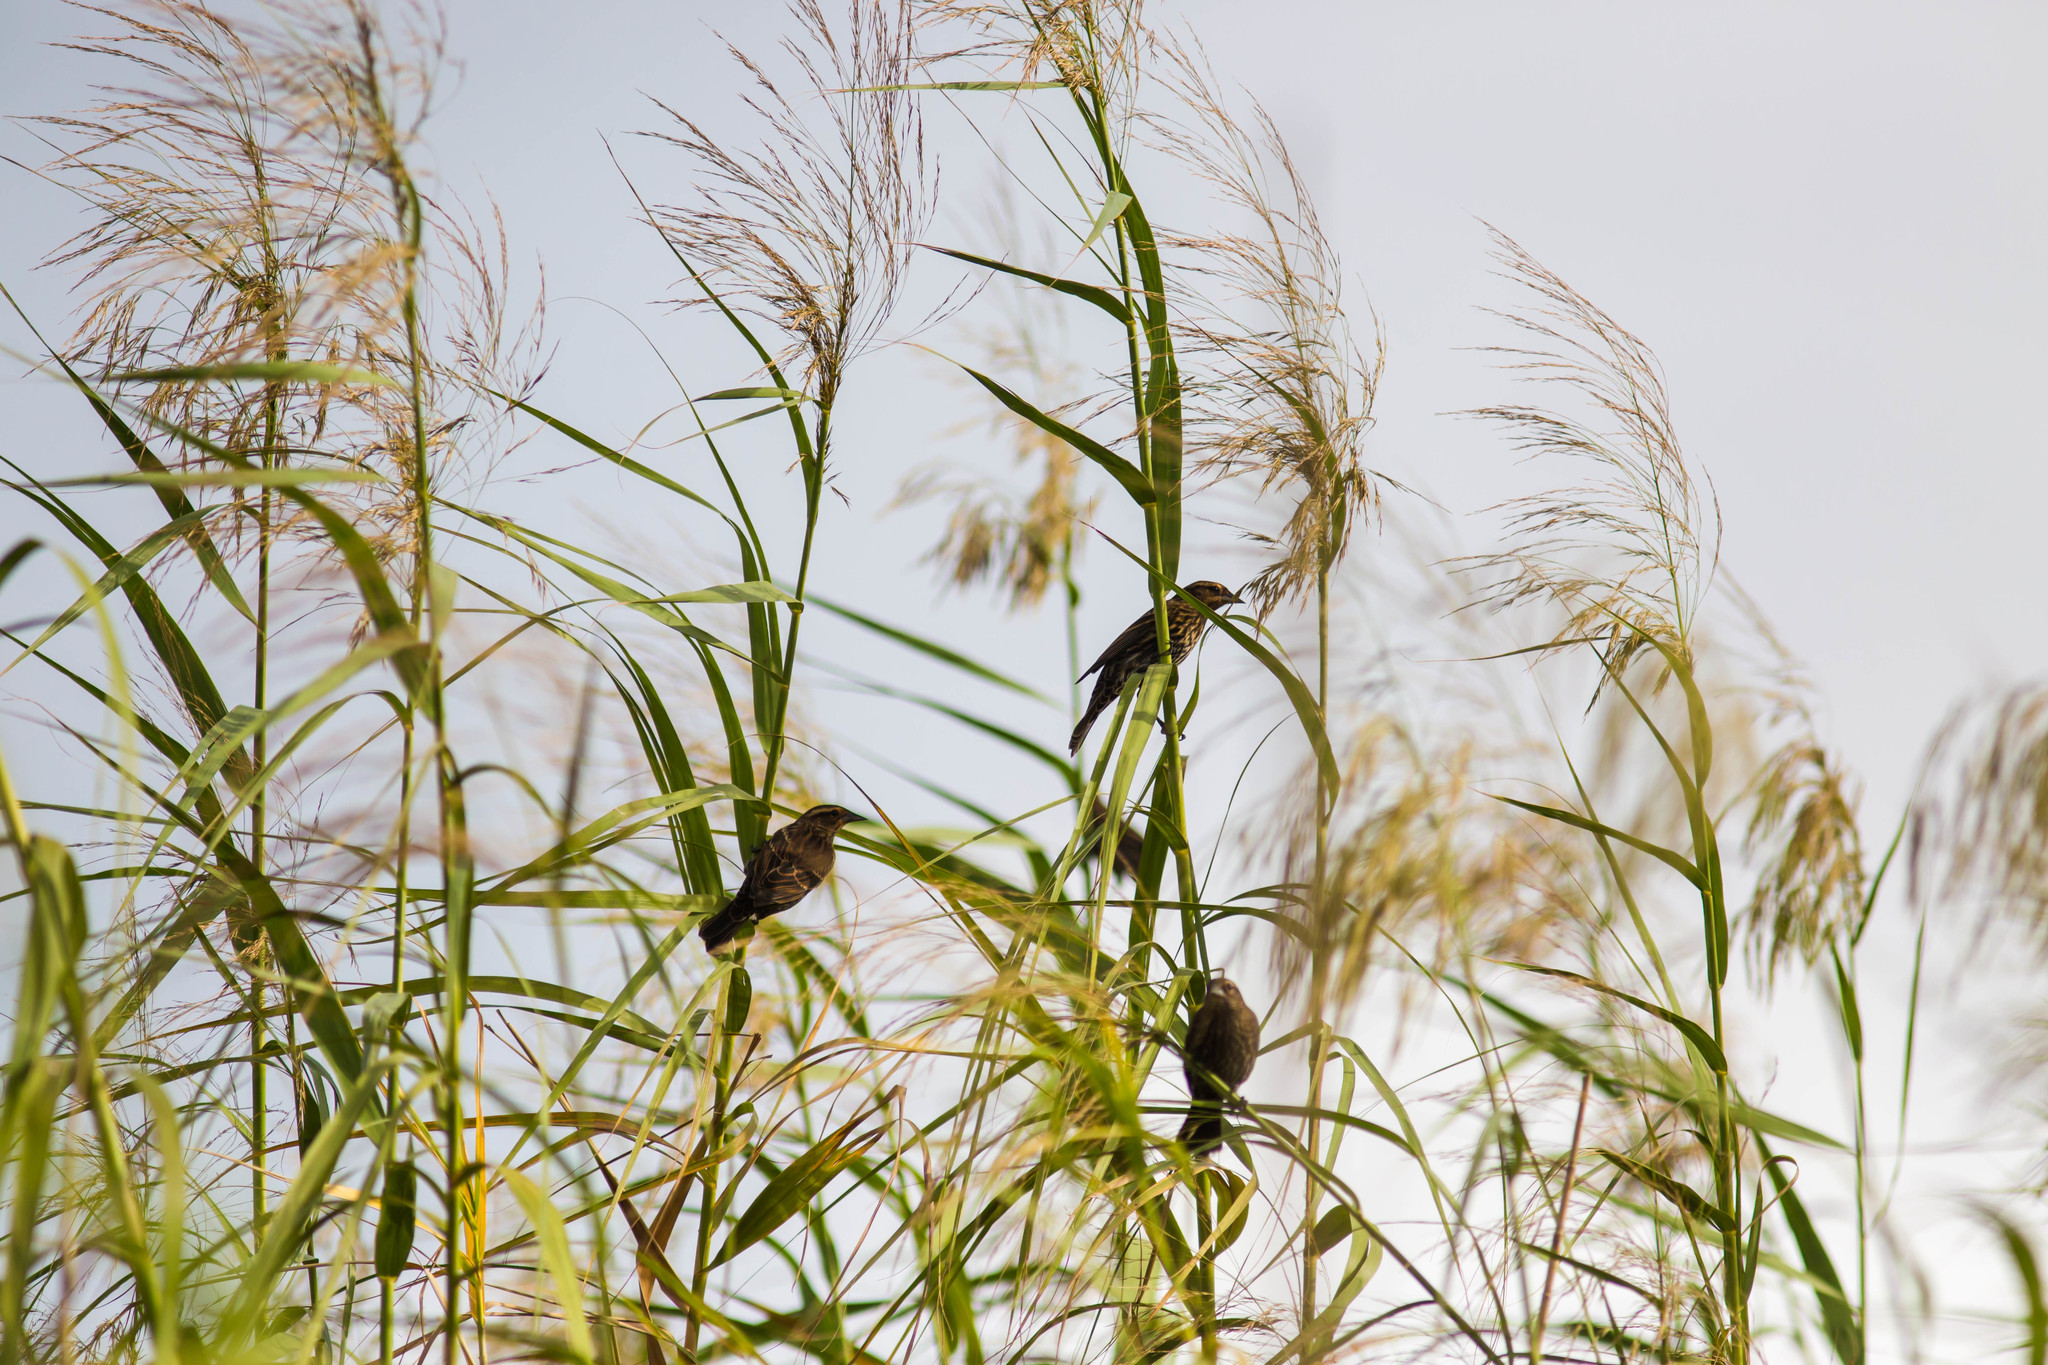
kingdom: Animalia
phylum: Chordata
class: Aves
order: Passeriformes
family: Icteridae
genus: Agelaius
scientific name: Agelaius phoeniceus
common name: Red-winged blackbird
